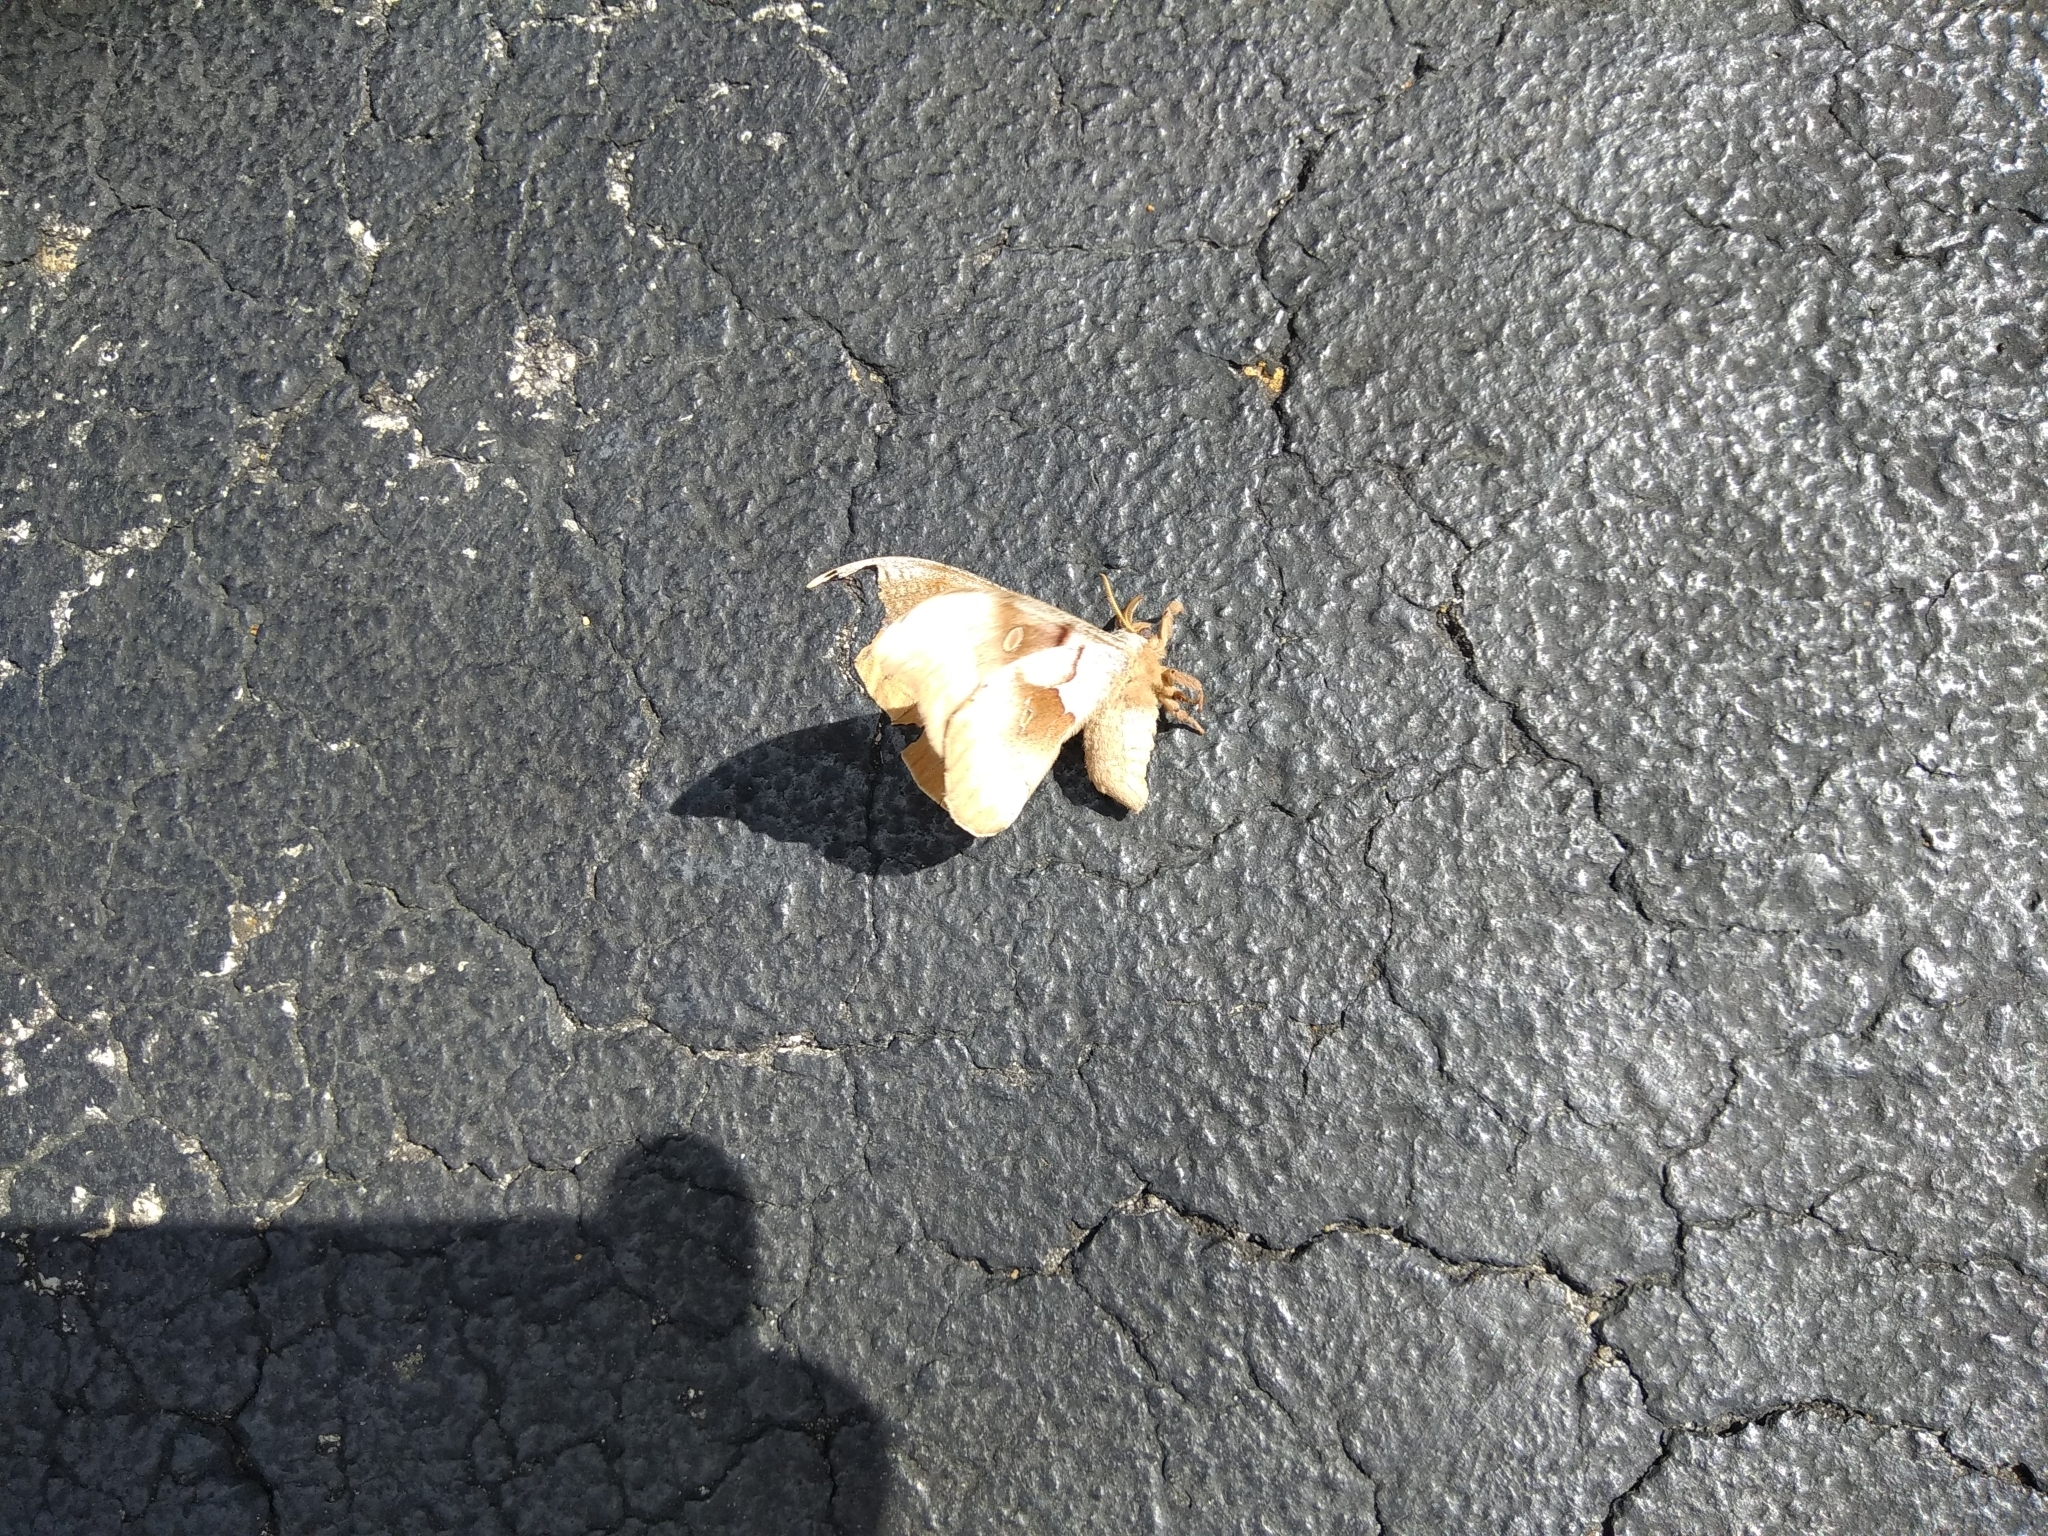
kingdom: Animalia
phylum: Arthropoda
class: Insecta
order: Lepidoptera
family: Saturniidae
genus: Antheraea
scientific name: Antheraea polyphemus
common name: Polyphemus moth
